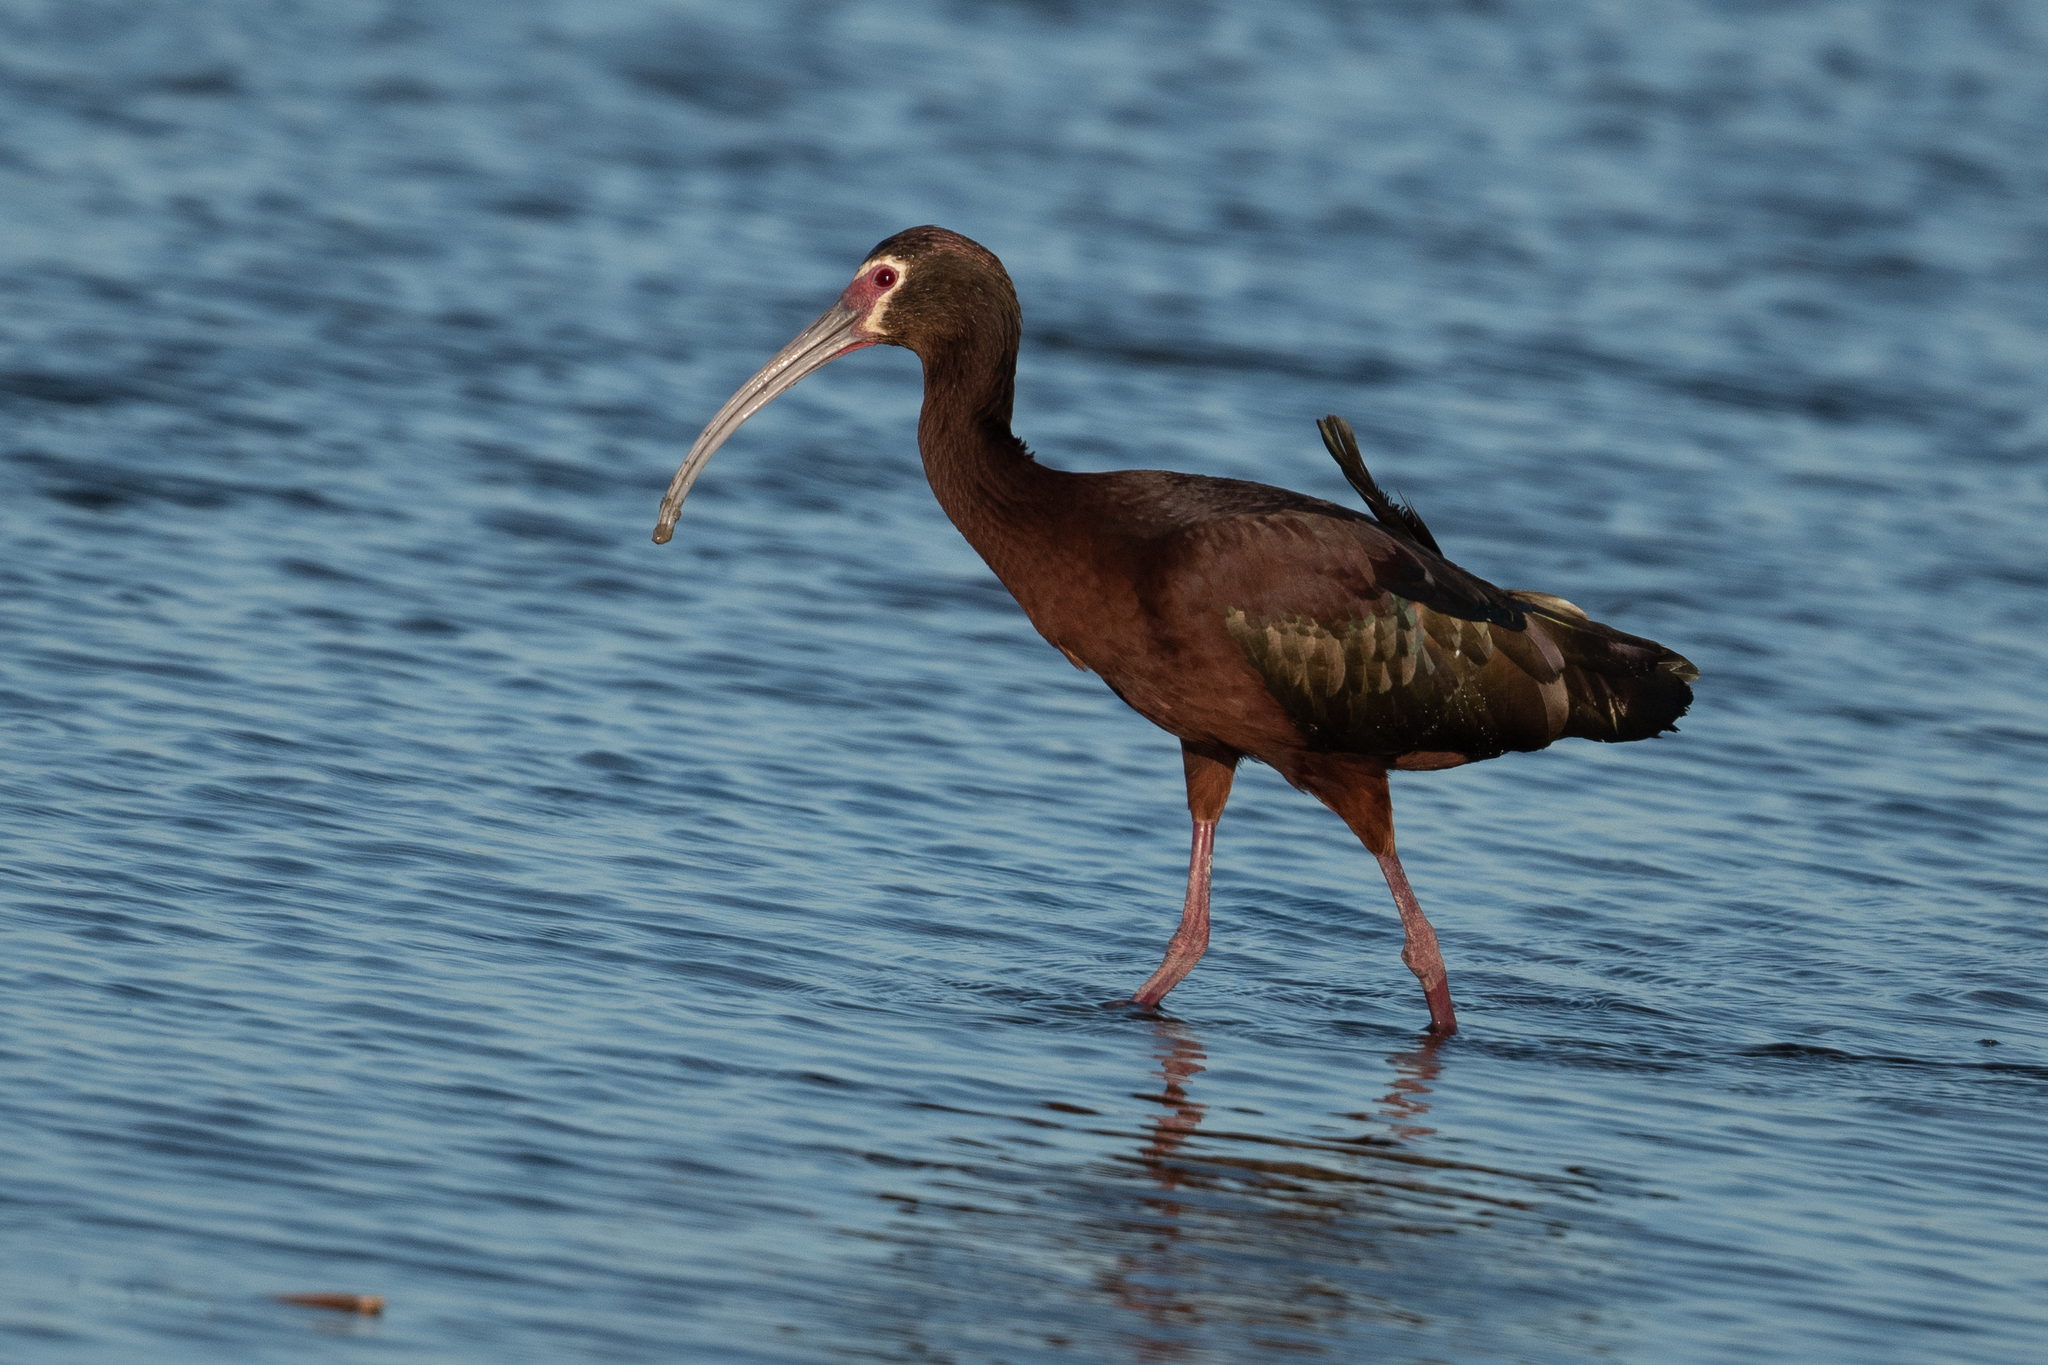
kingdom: Animalia
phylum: Chordata
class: Aves
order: Pelecaniformes
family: Threskiornithidae
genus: Plegadis
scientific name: Plegadis chihi
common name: White-faced ibis
